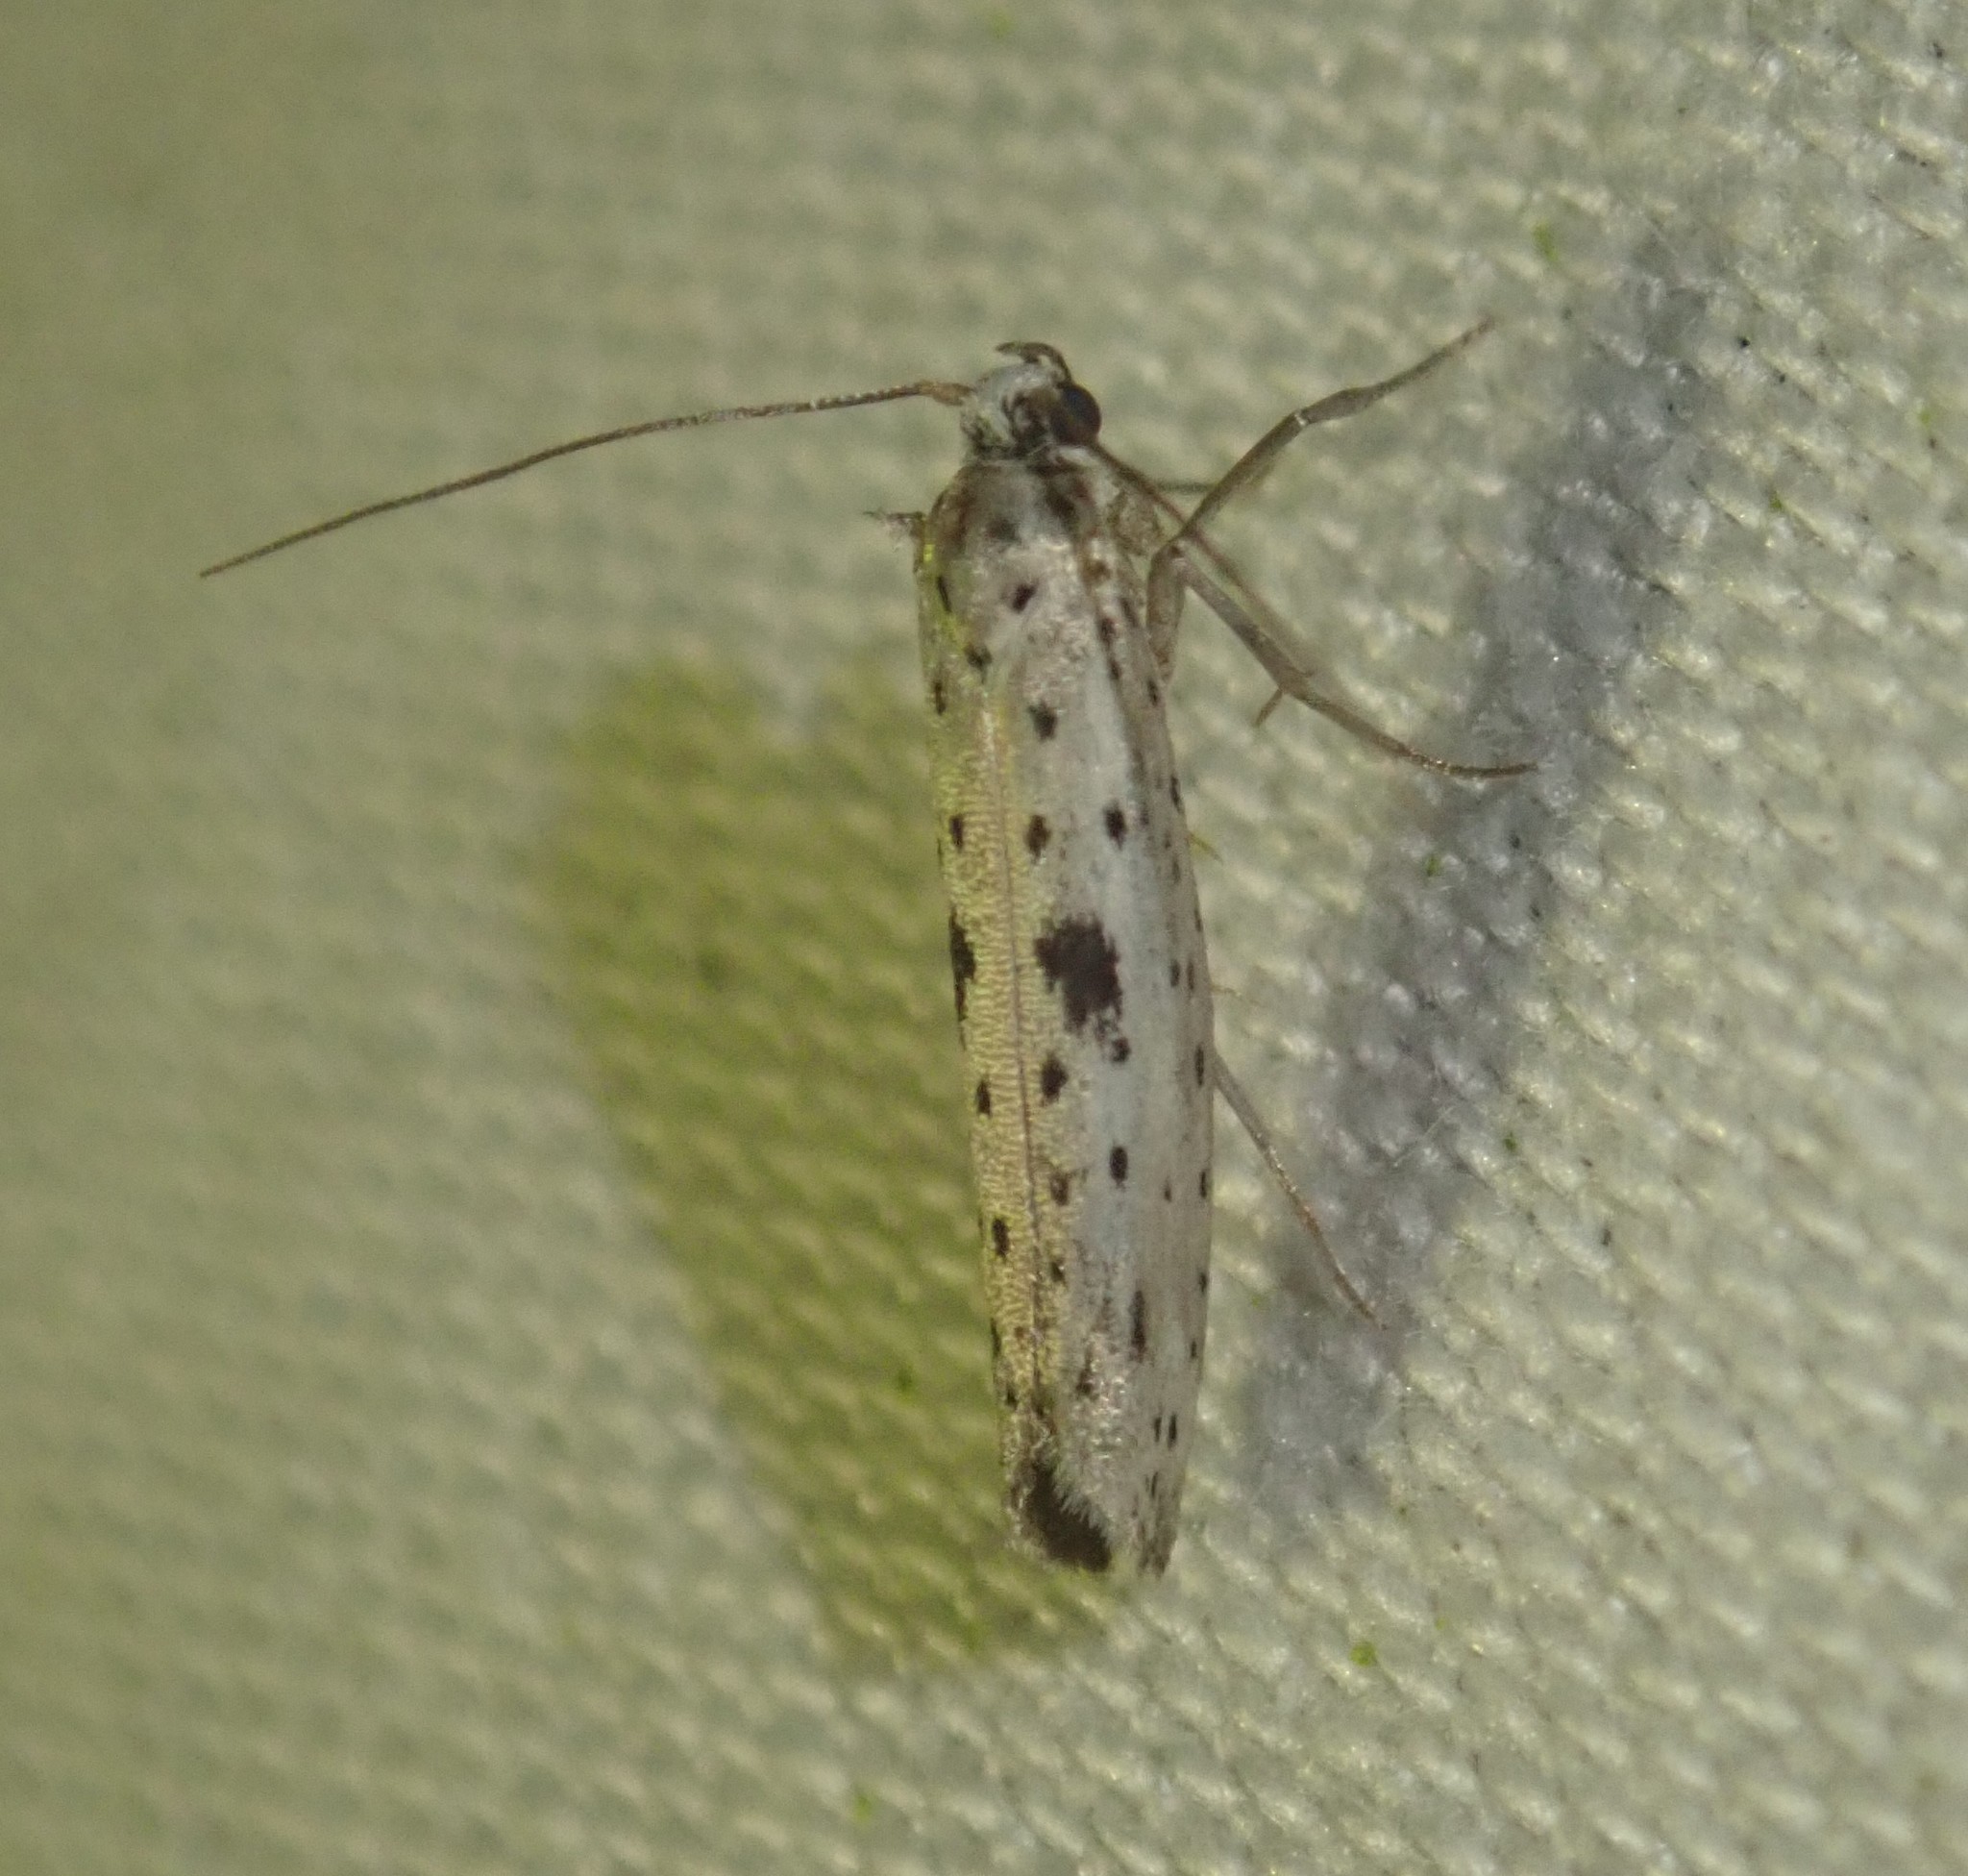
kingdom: Animalia
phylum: Arthropoda
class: Insecta
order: Lepidoptera
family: Yponomeutidae
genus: Yponomeuta
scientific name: Yponomeuta plumbella
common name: Black-tipped ermine
